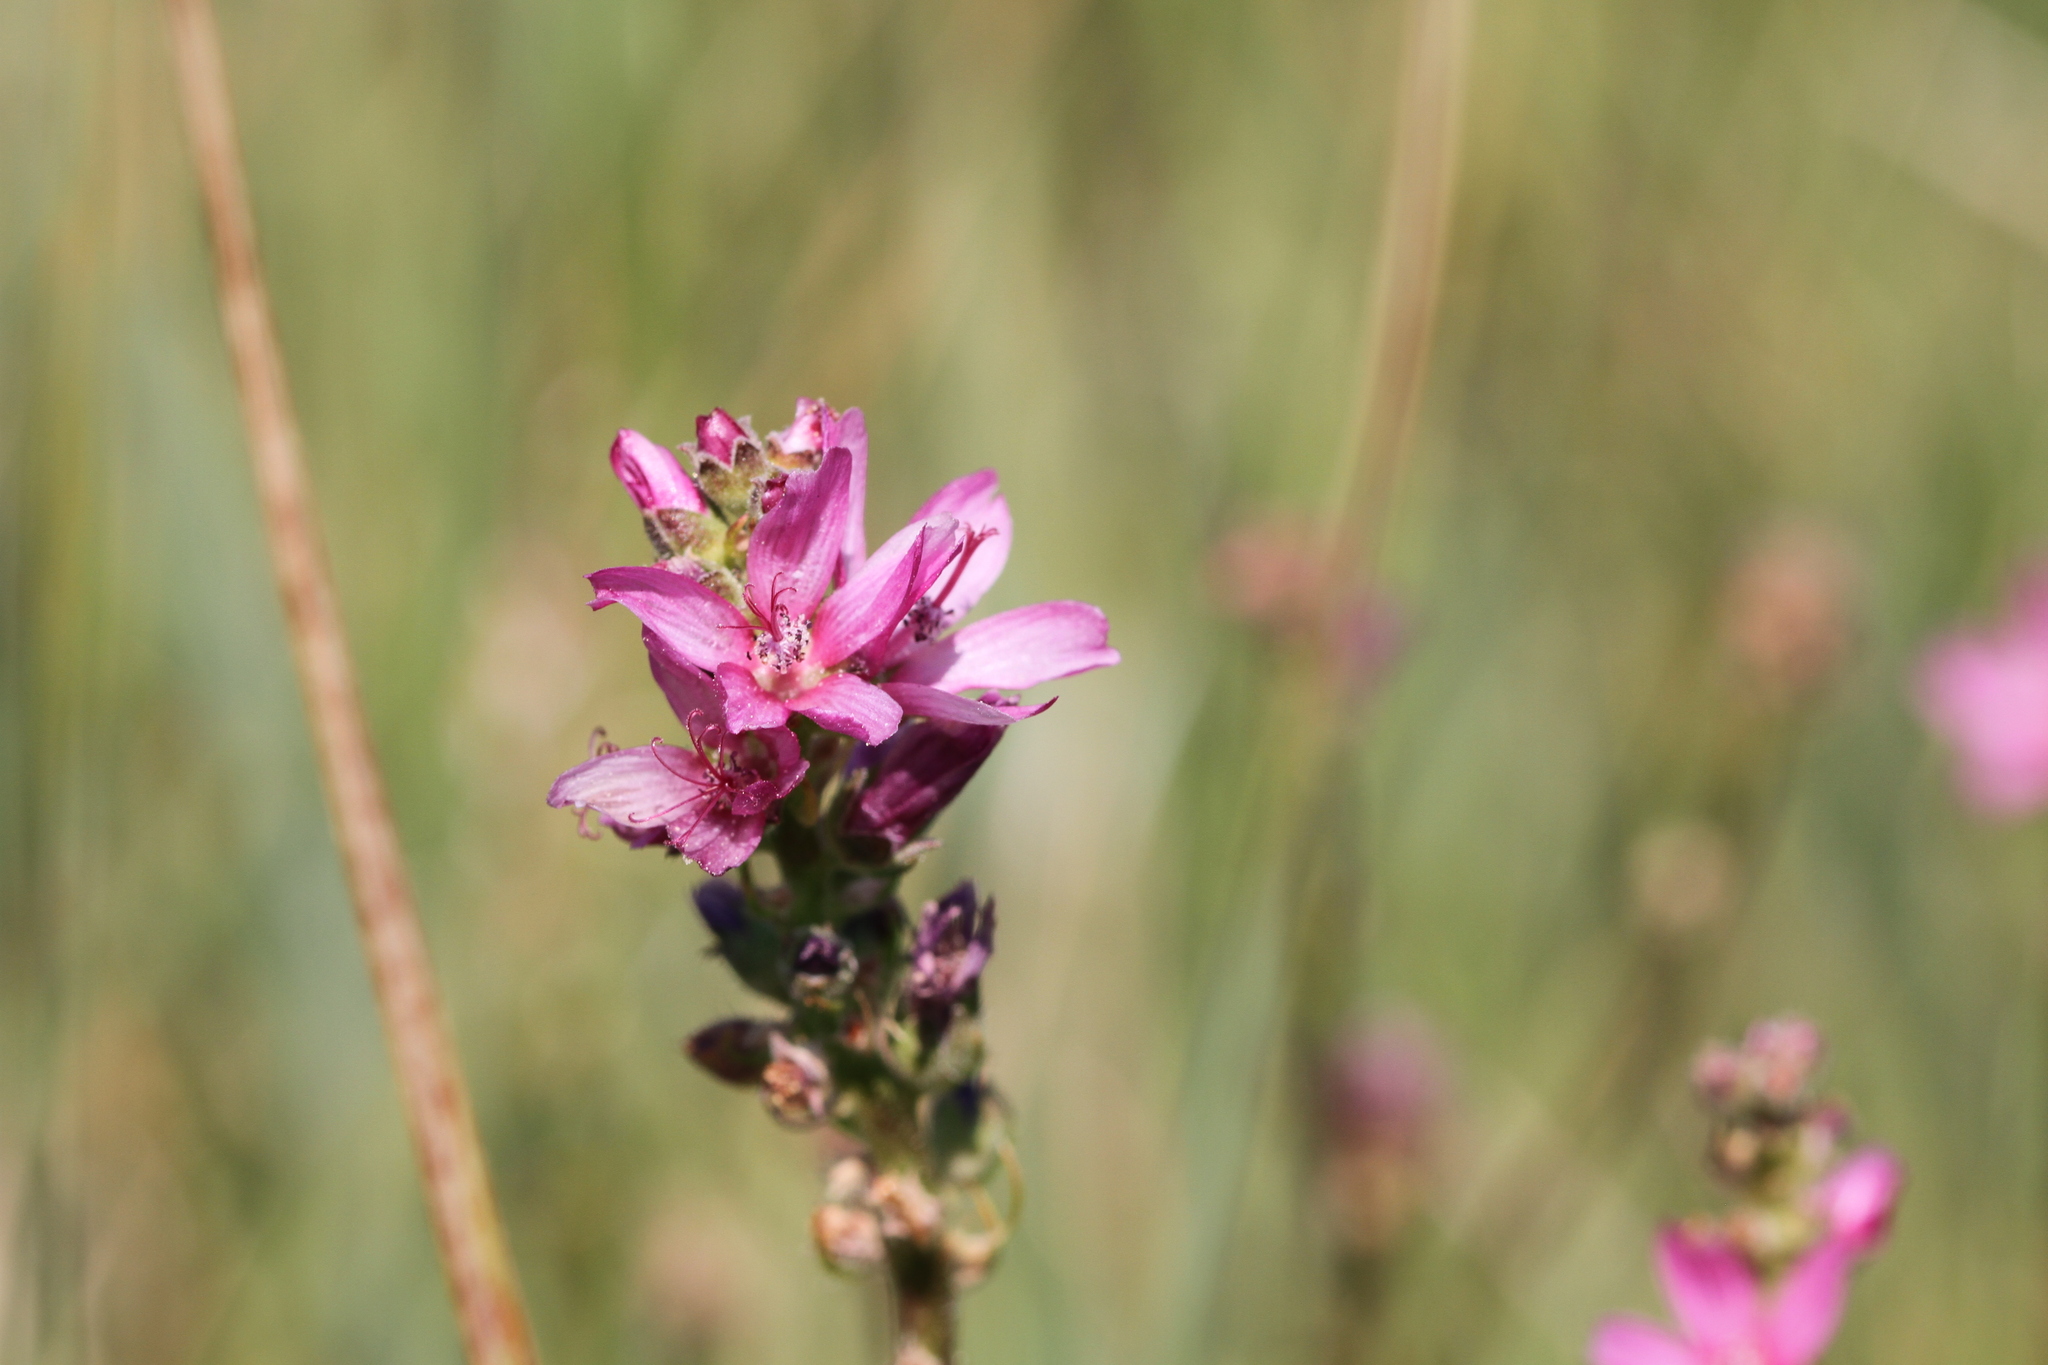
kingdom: Plantae
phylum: Tracheophyta
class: Magnoliopsida
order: Malvales
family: Malvaceae
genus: Sidalcea
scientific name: Sidalcea oregana
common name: Oregon checker-mallow
